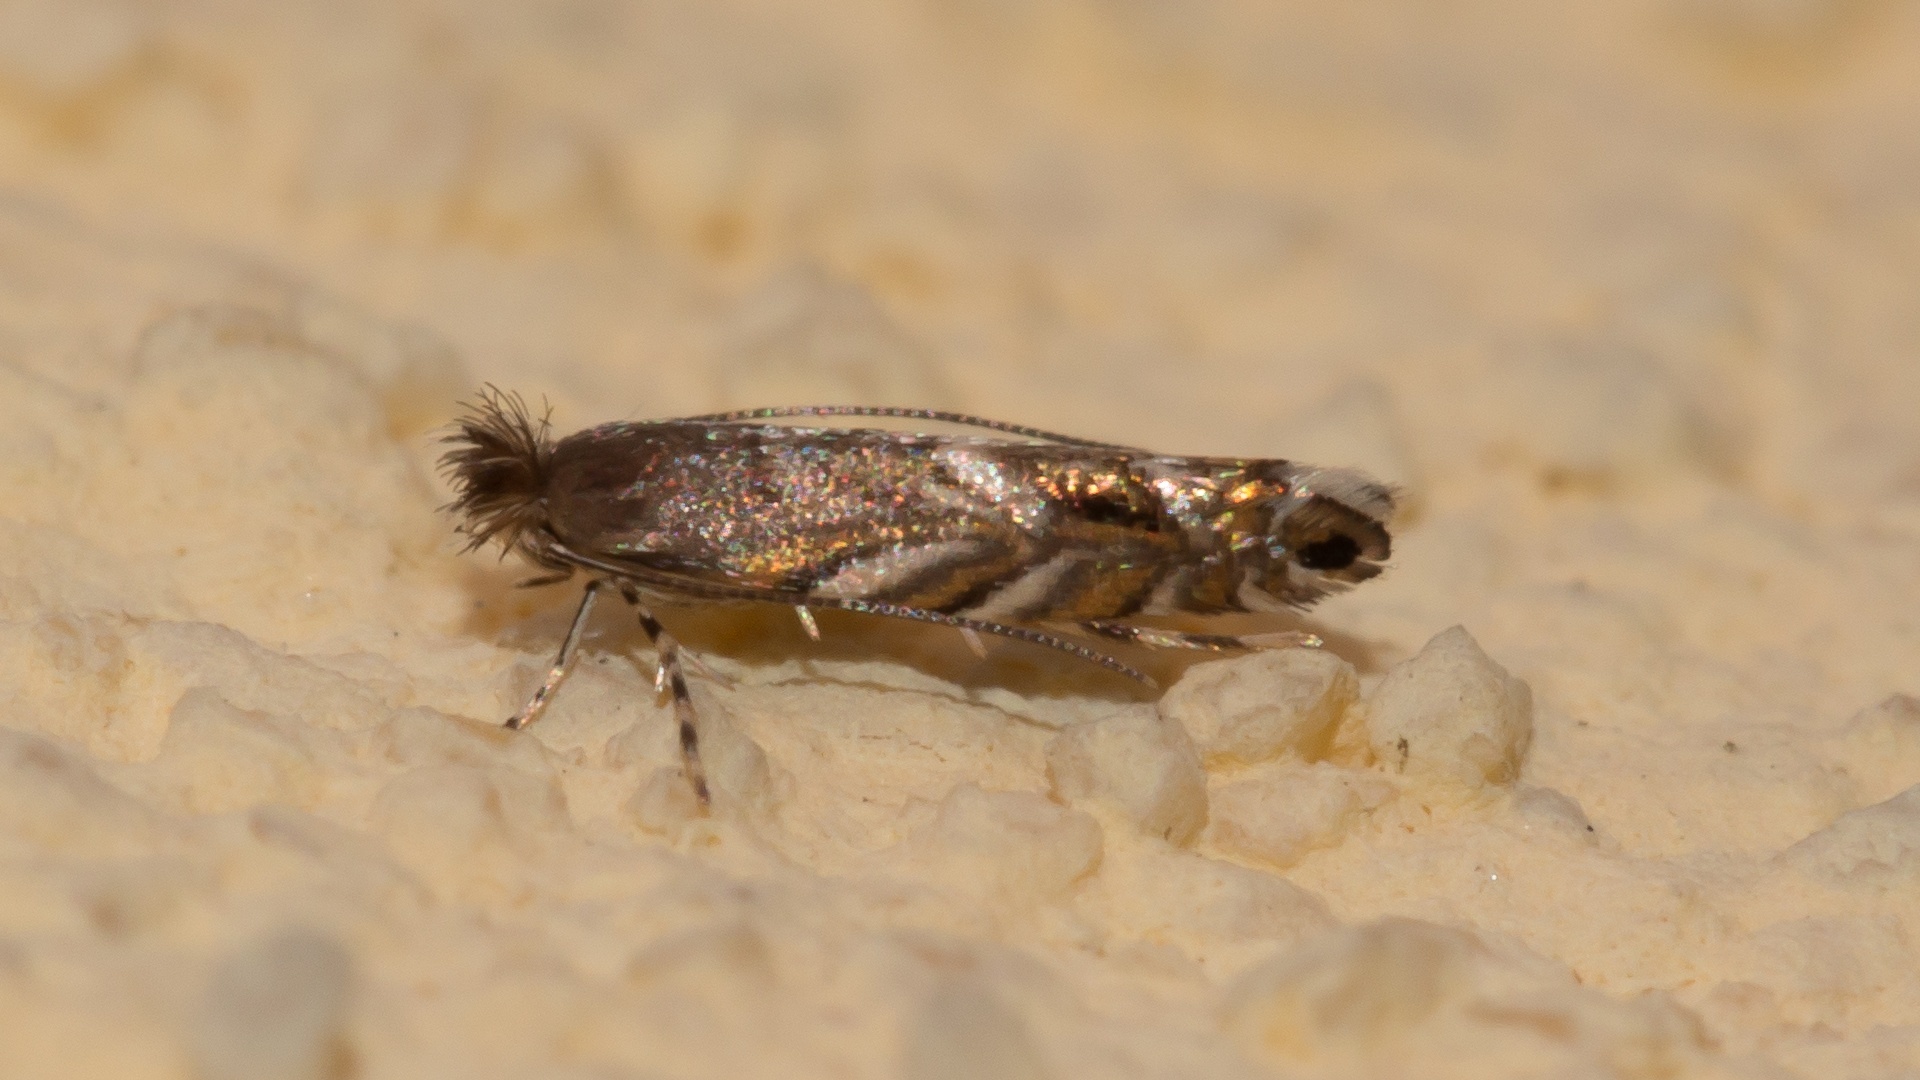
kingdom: Animalia
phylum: Arthropoda
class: Insecta
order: Lepidoptera
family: Gracillariidae
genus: Macrosaccus
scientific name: Macrosaccus robiniella
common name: Leaf blotch miner moth
